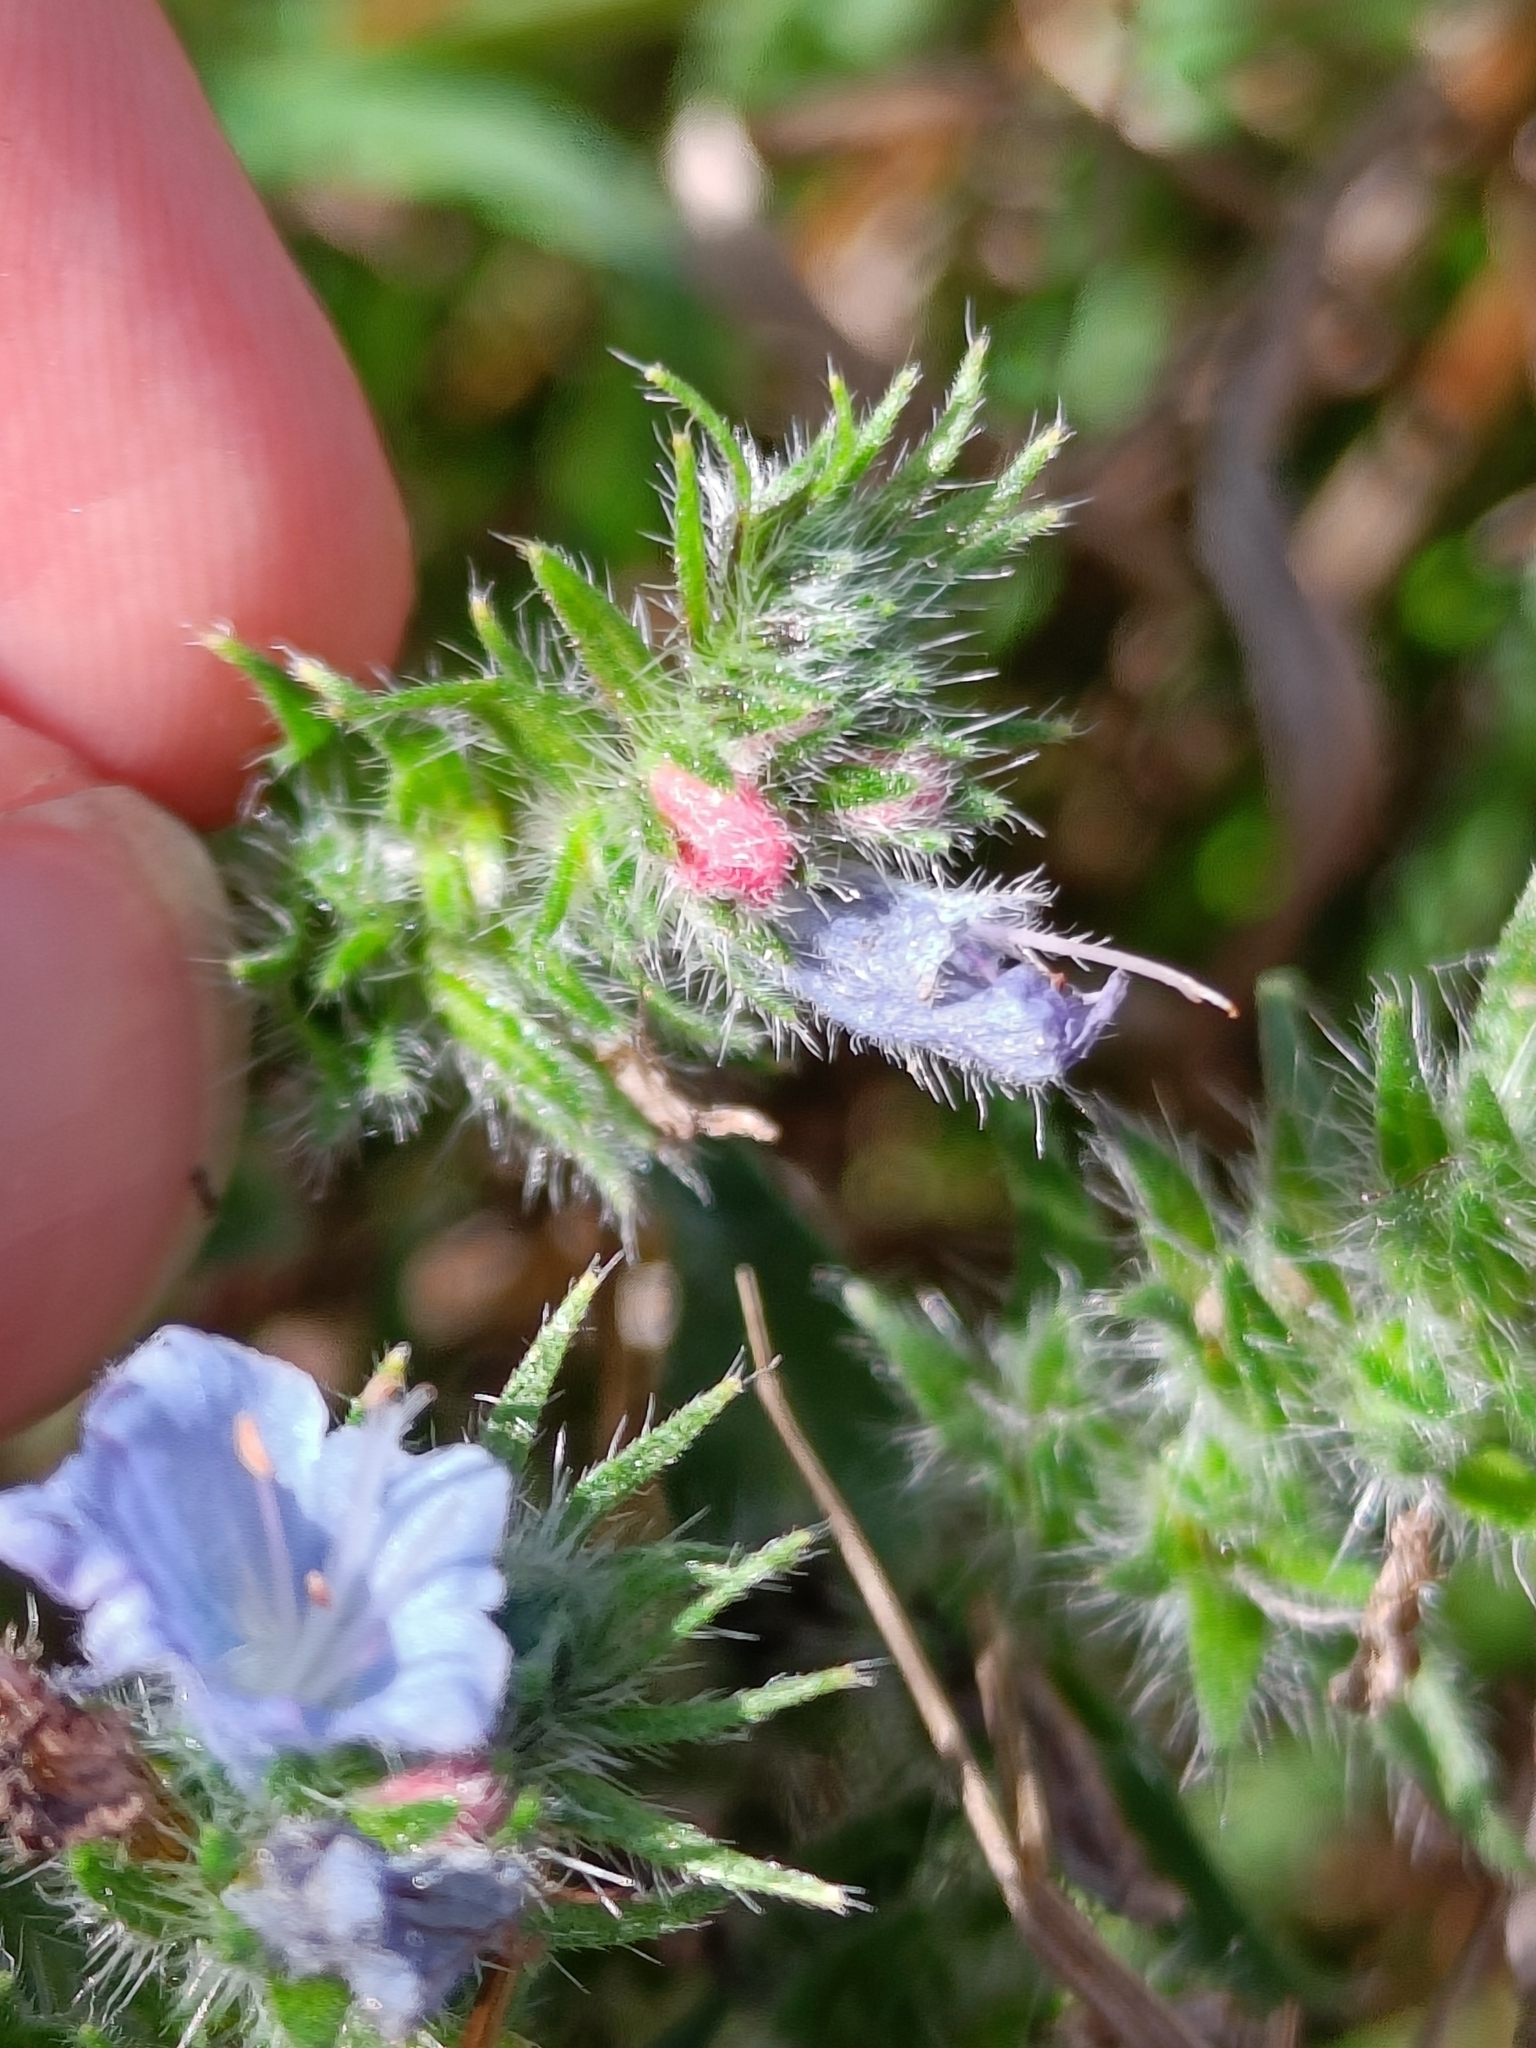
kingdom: Plantae
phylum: Tracheophyta
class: Magnoliopsida
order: Boraginales
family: Boraginaceae
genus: Echium
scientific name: Echium vulgare
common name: Common viper's bugloss
